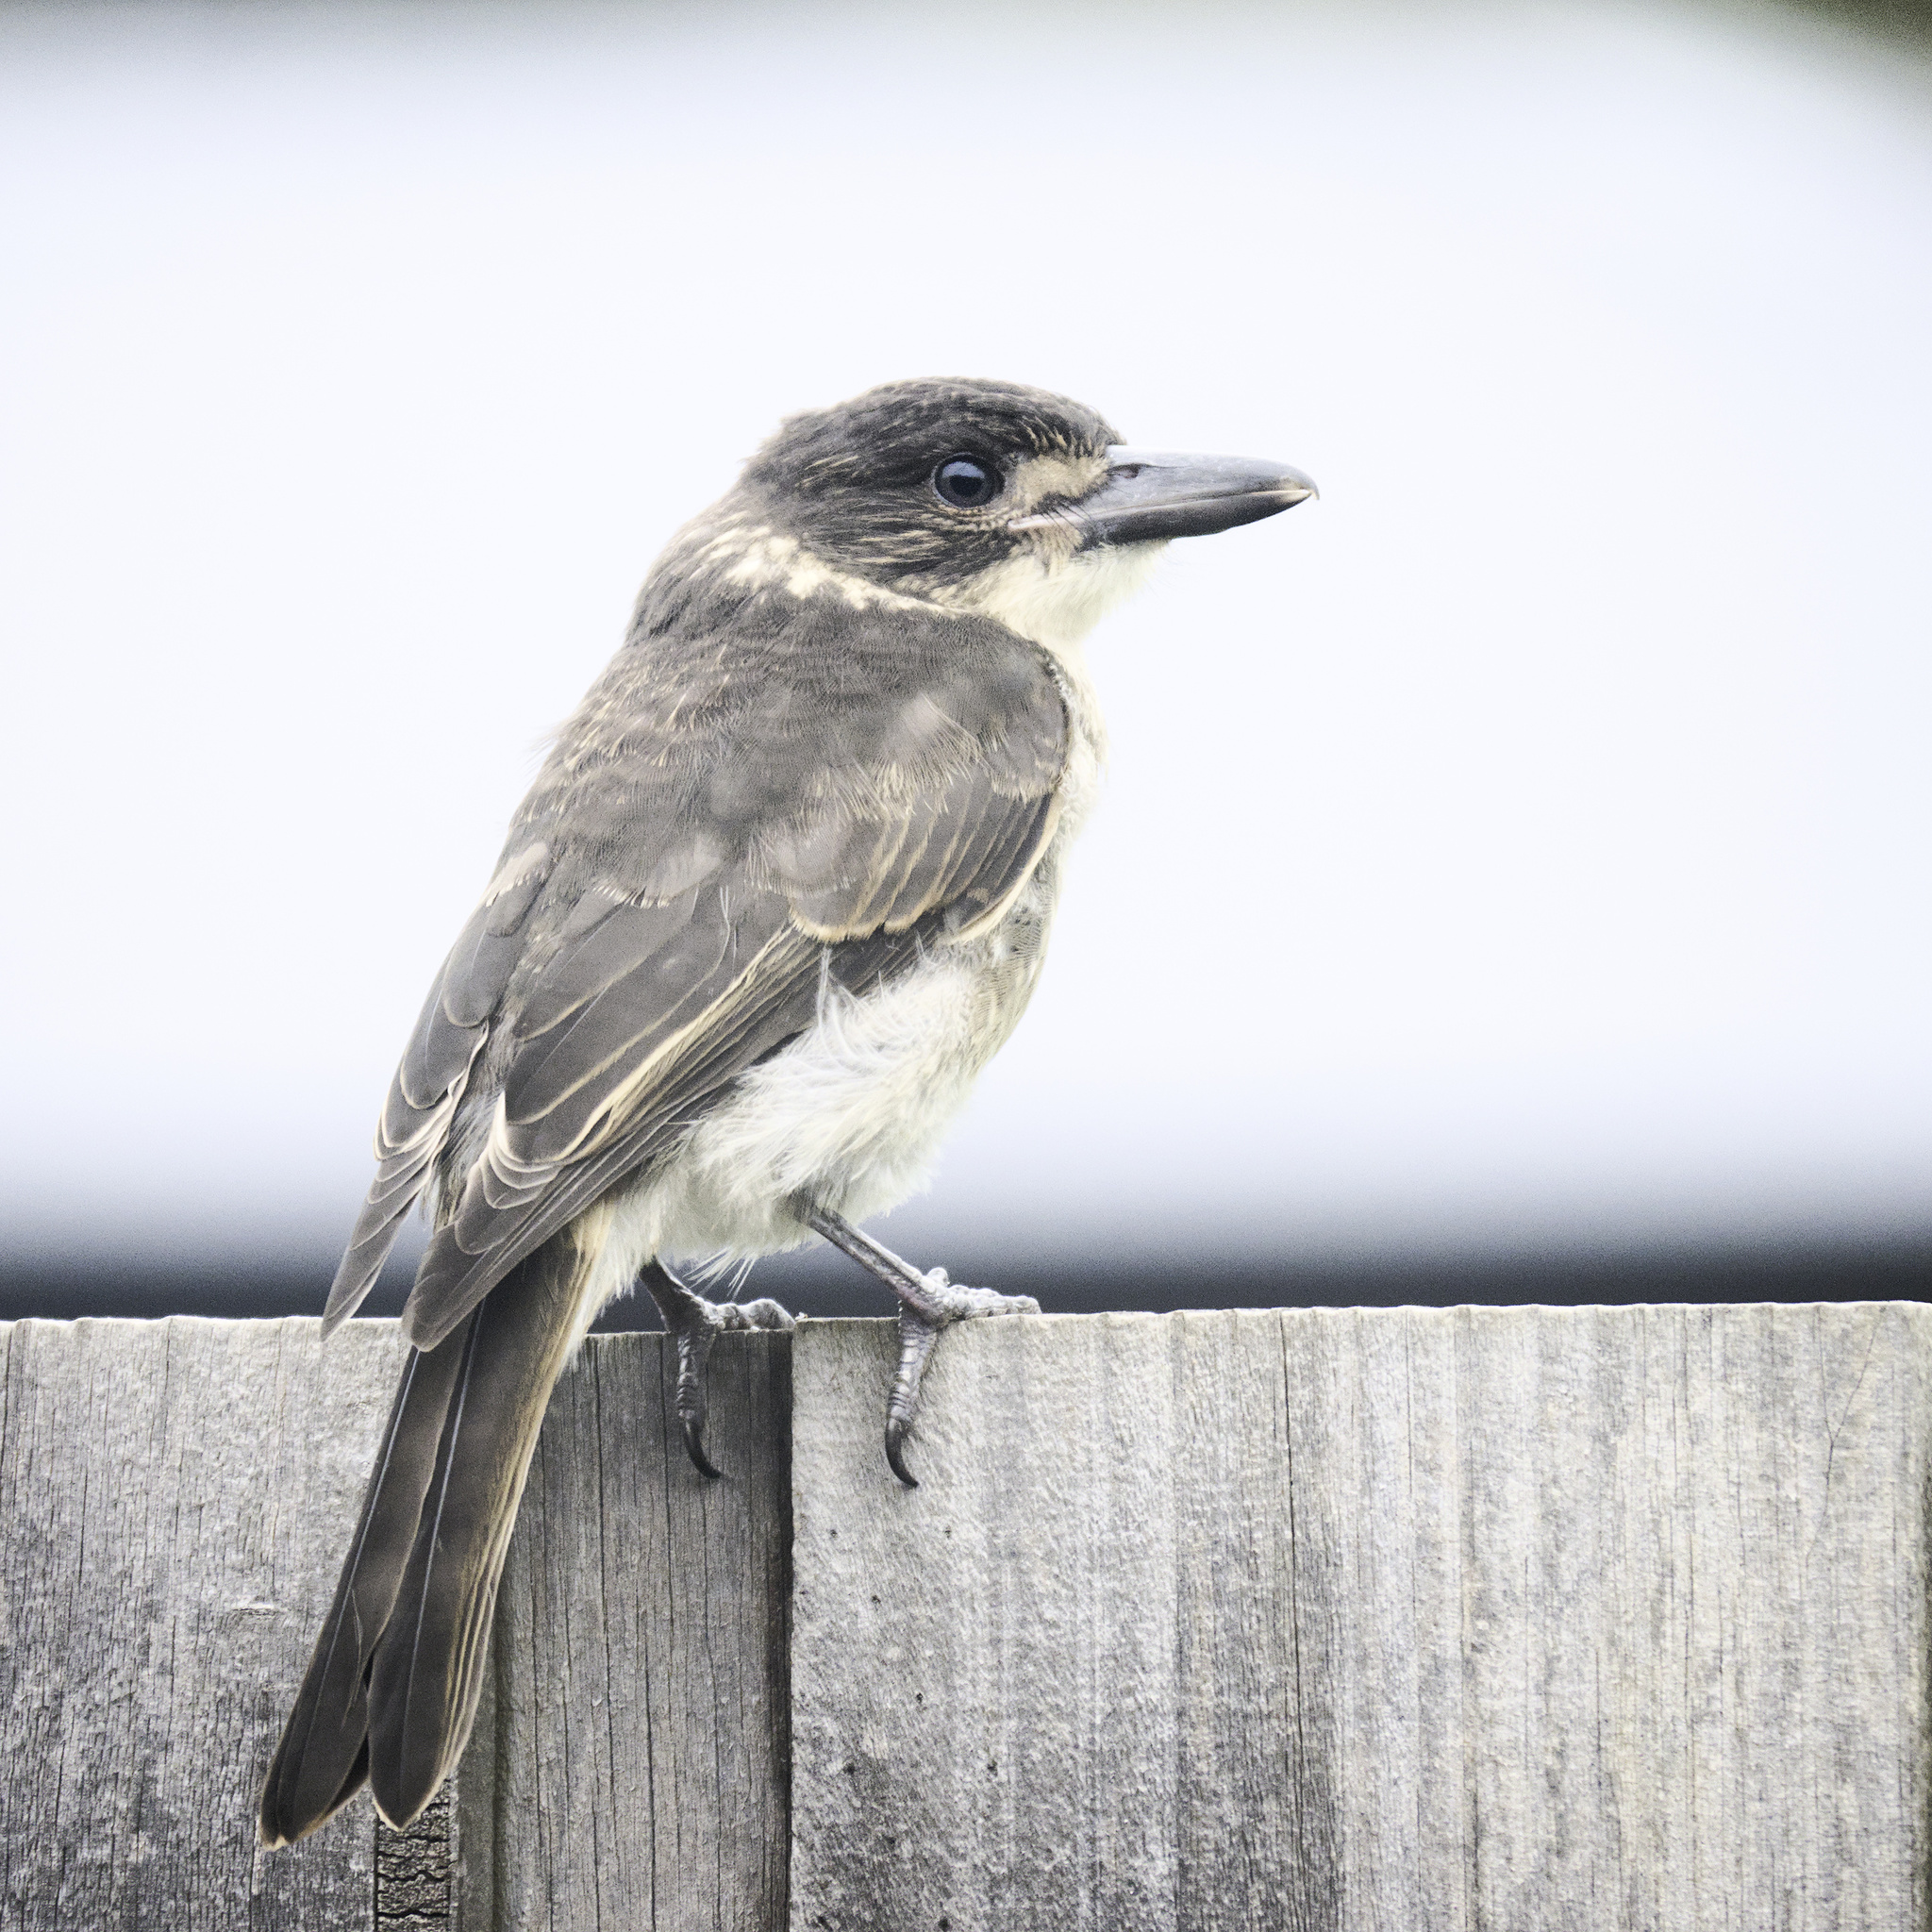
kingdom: Animalia
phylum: Chordata
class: Aves
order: Passeriformes
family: Cracticidae
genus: Cracticus
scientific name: Cracticus torquatus
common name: Grey butcherbird
